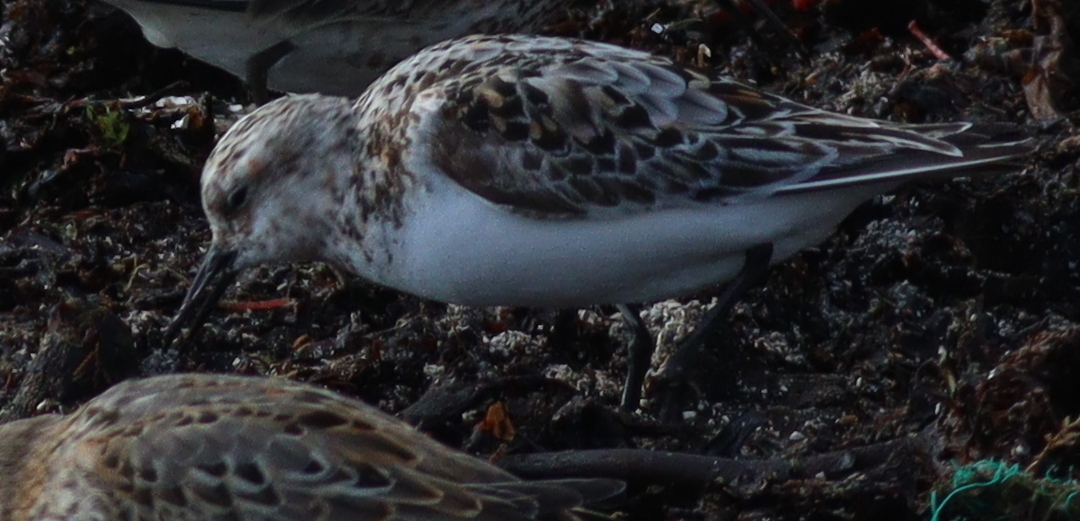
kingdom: Animalia
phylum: Chordata
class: Aves
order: Charadriiformes
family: Scolopacidae
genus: Calidris
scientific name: Calidris alba
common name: Sanderling
